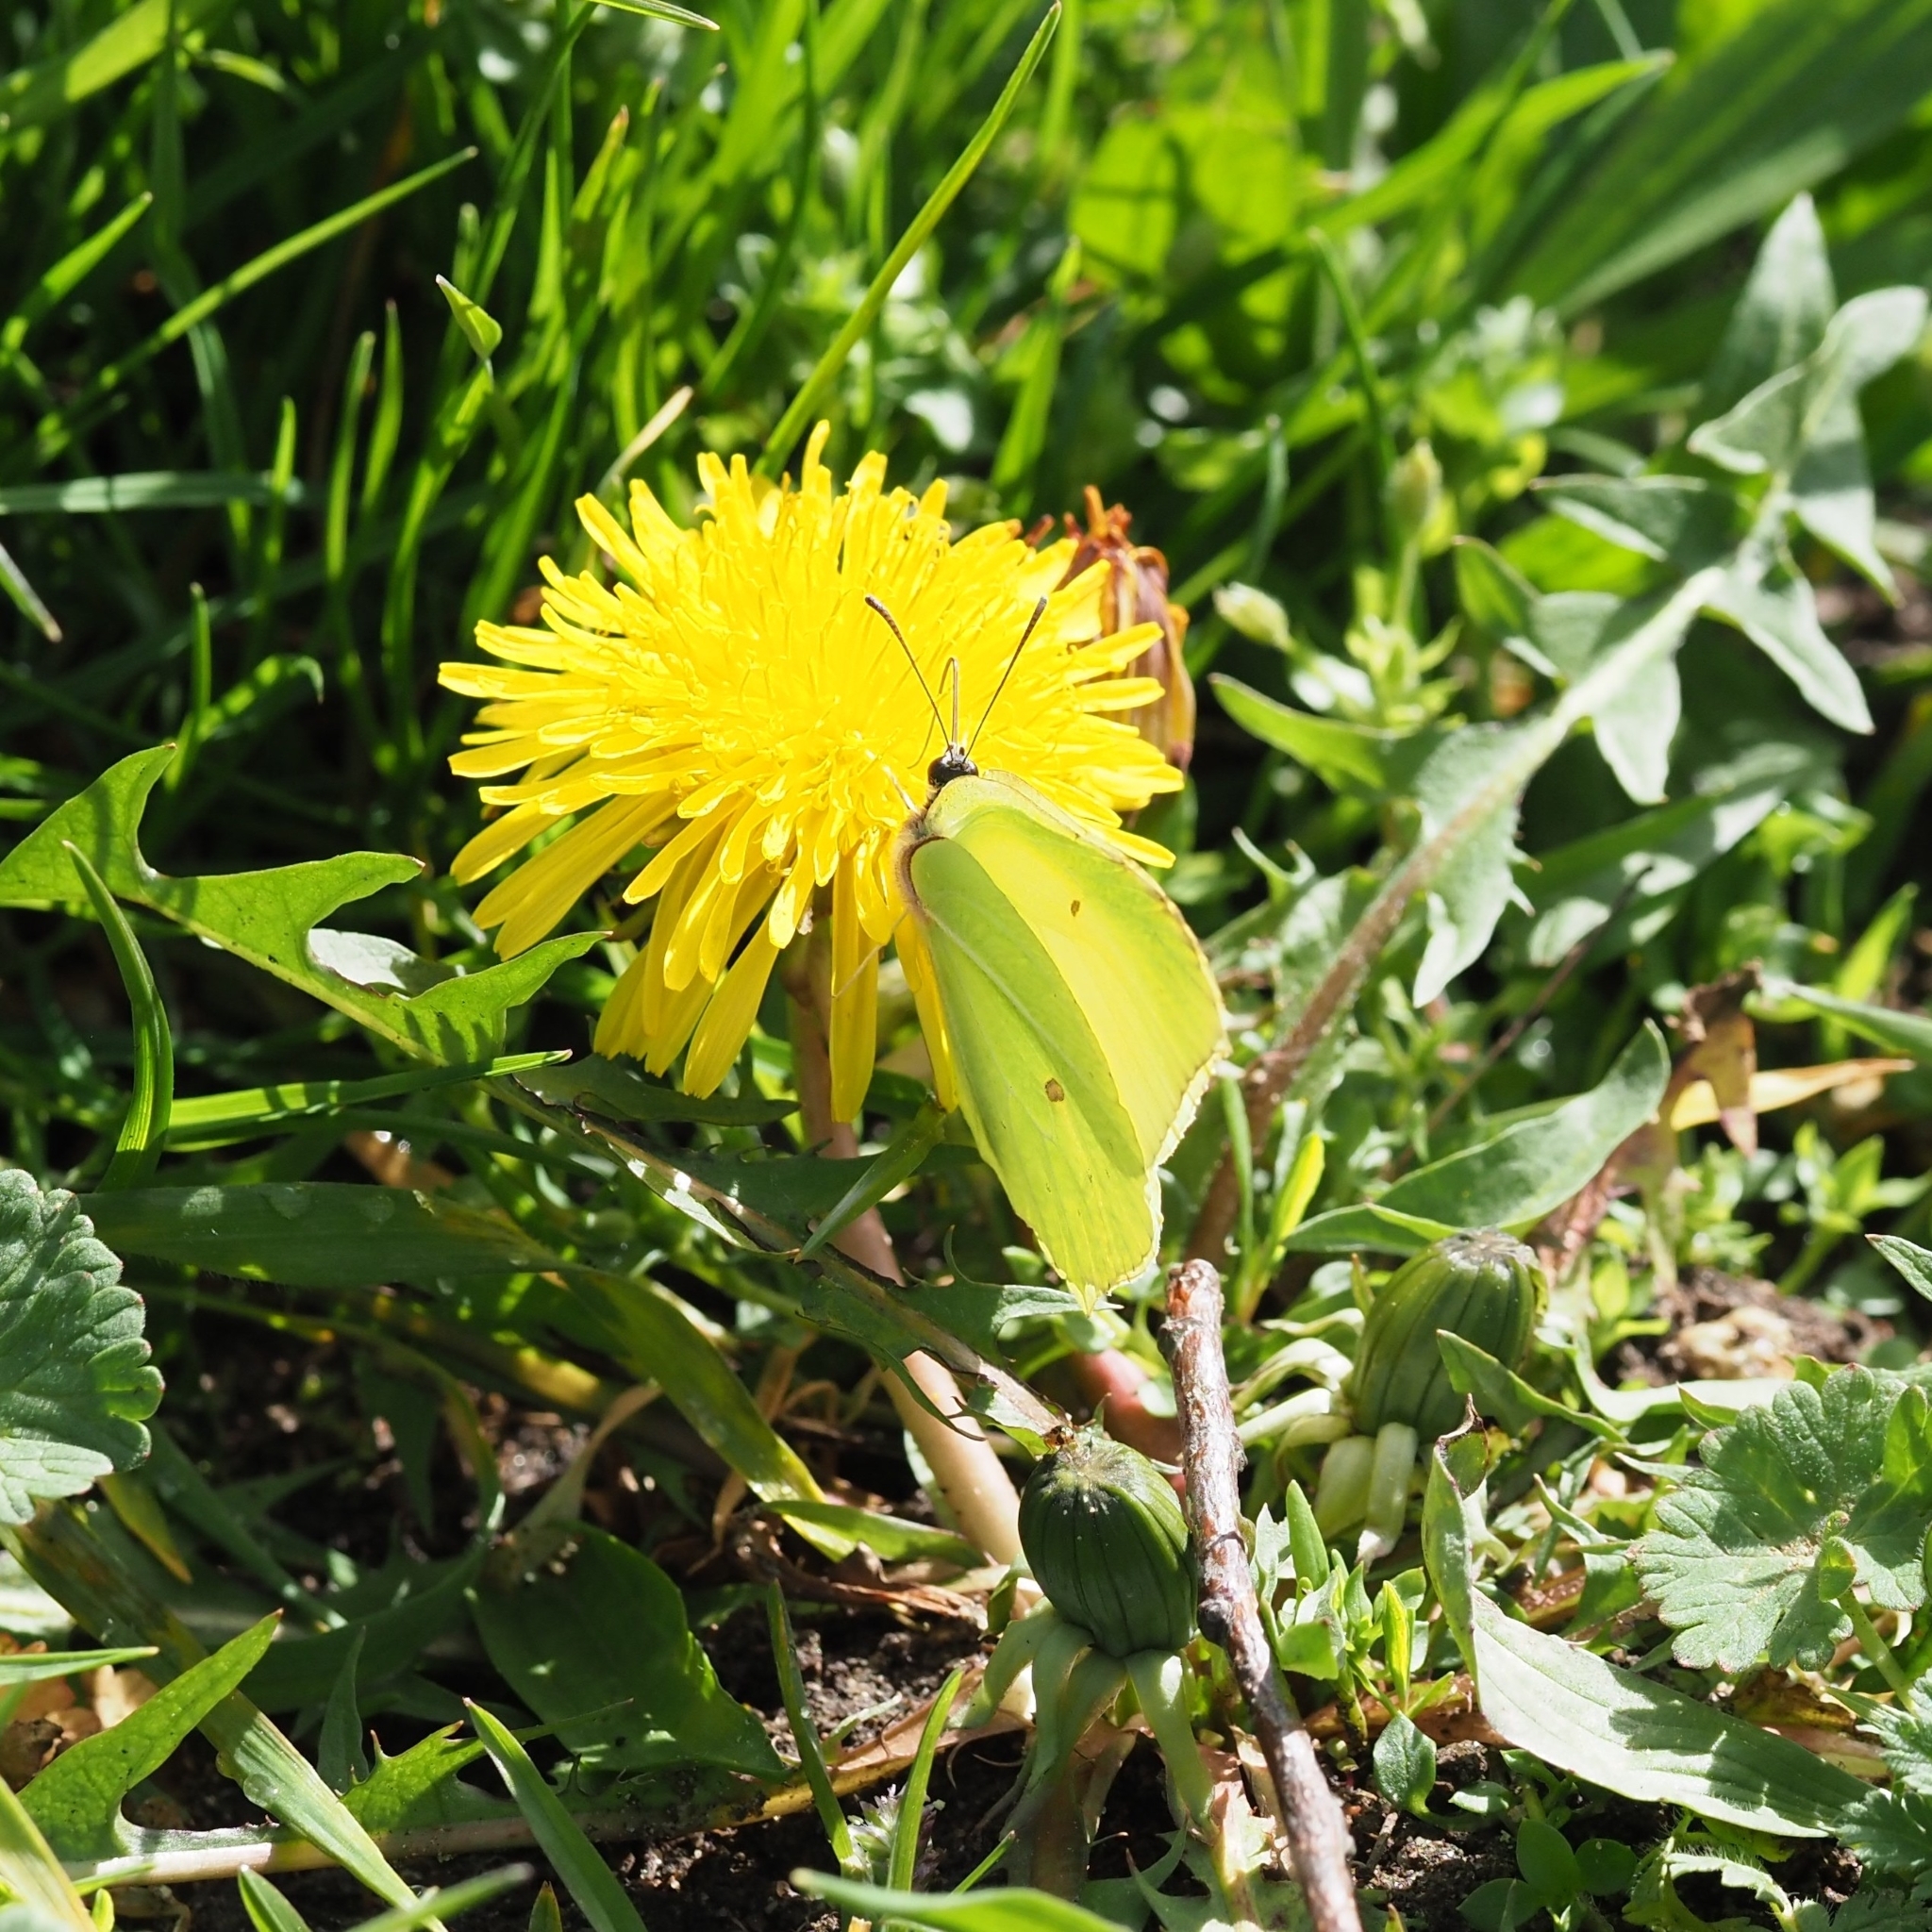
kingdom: Animalia
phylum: Arthropoda
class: Insecta
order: Lepidoptera
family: Pieridae
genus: Gonepteryx
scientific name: Gonepteryx rhamni
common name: Brimstone
